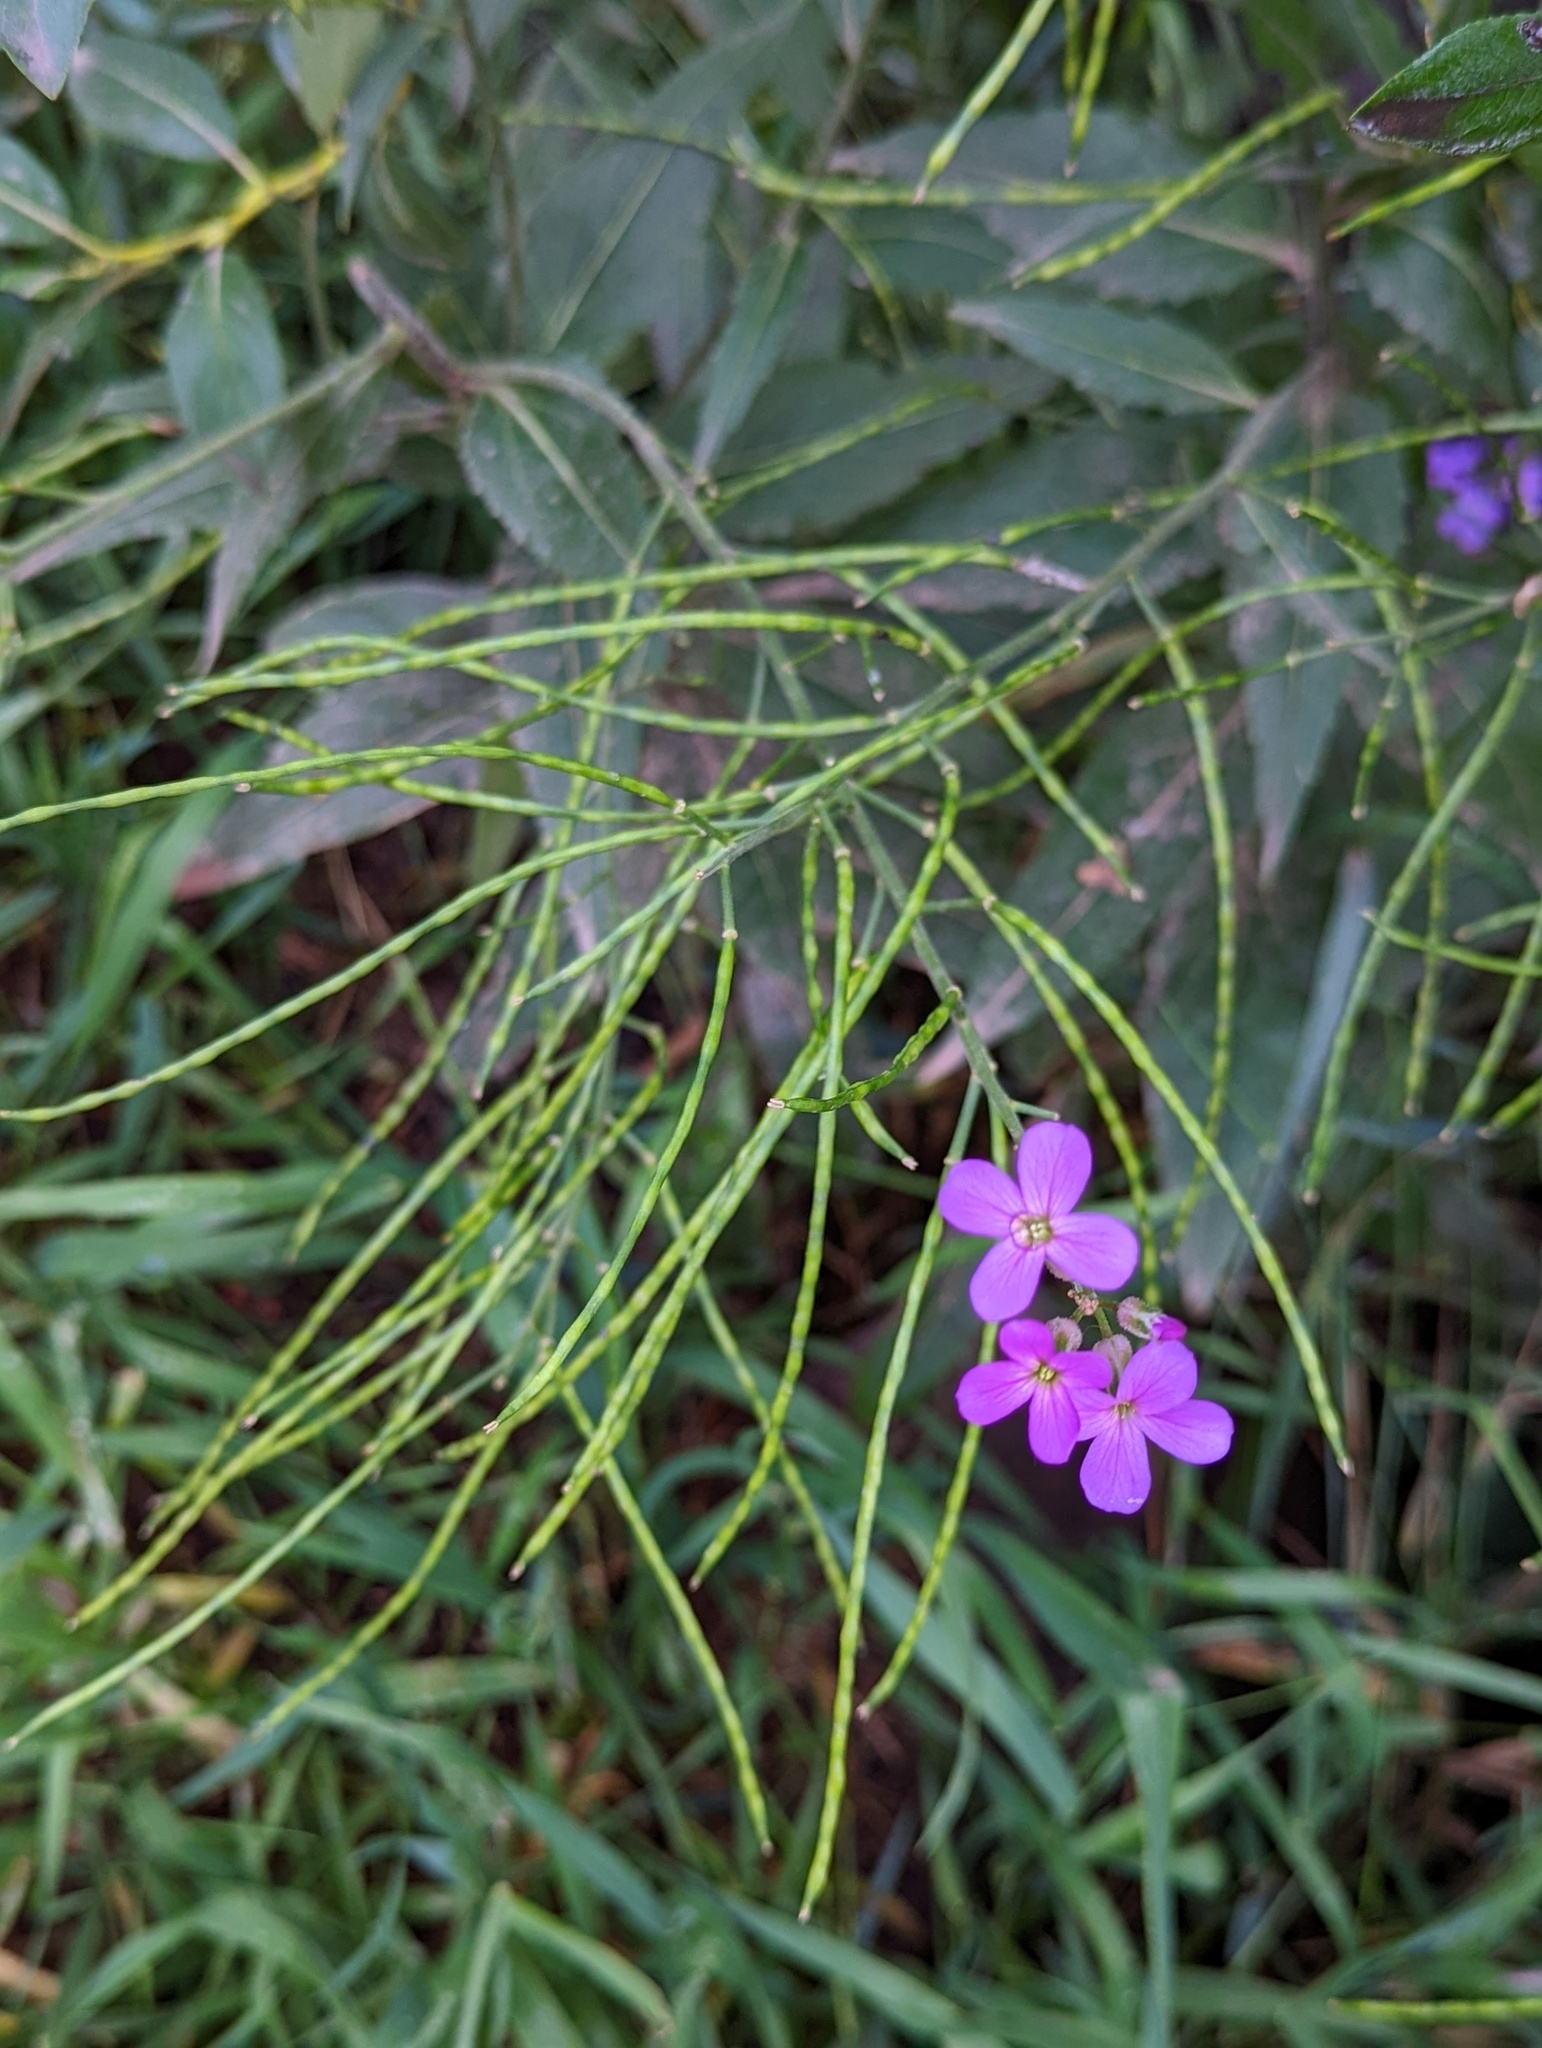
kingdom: Plantae
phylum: Tracheophyta
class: Magnoliopsida
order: Brassicales
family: Brassicaceae
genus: Hesperis
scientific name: Hesperis matronalis
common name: Dame's-violet
